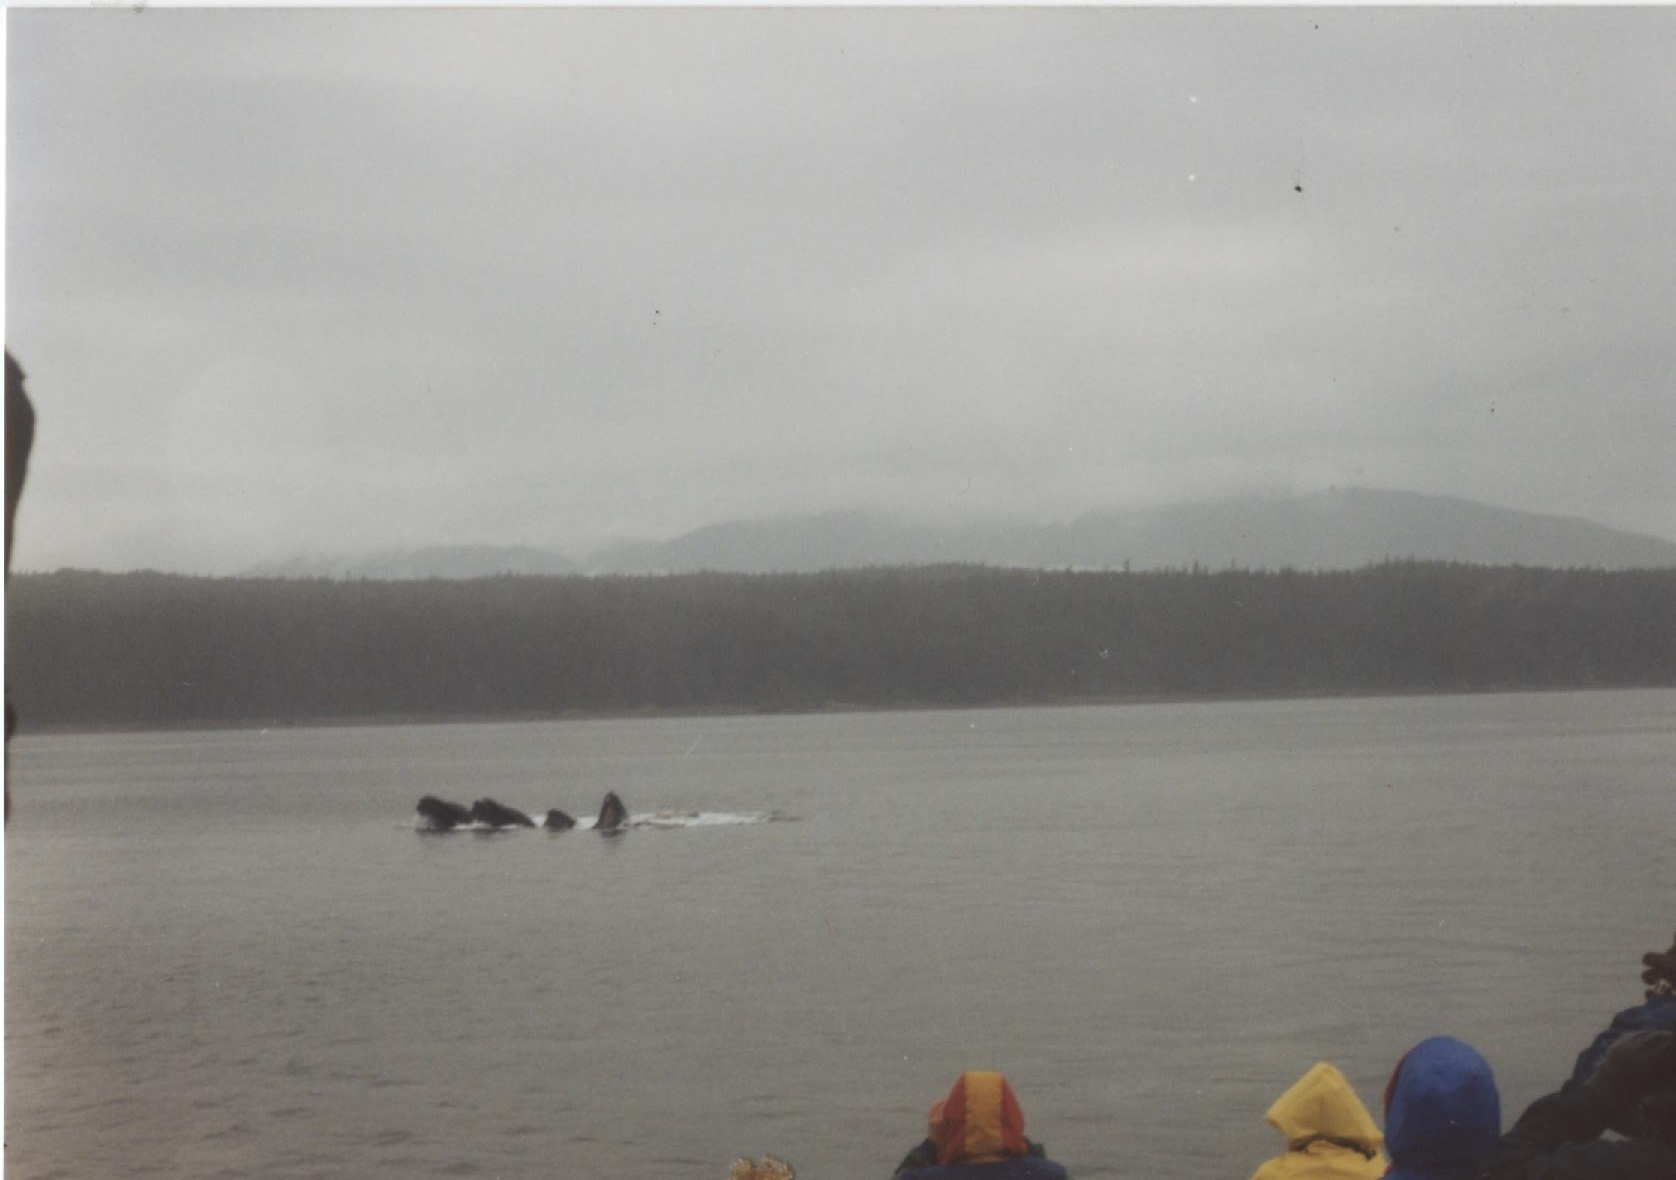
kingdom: Animalia
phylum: Chordata
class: Mammalia
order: Cetacea
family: Balaenopteridae
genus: Megaptera
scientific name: Megaptera novaeangliae
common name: Humpback whale
